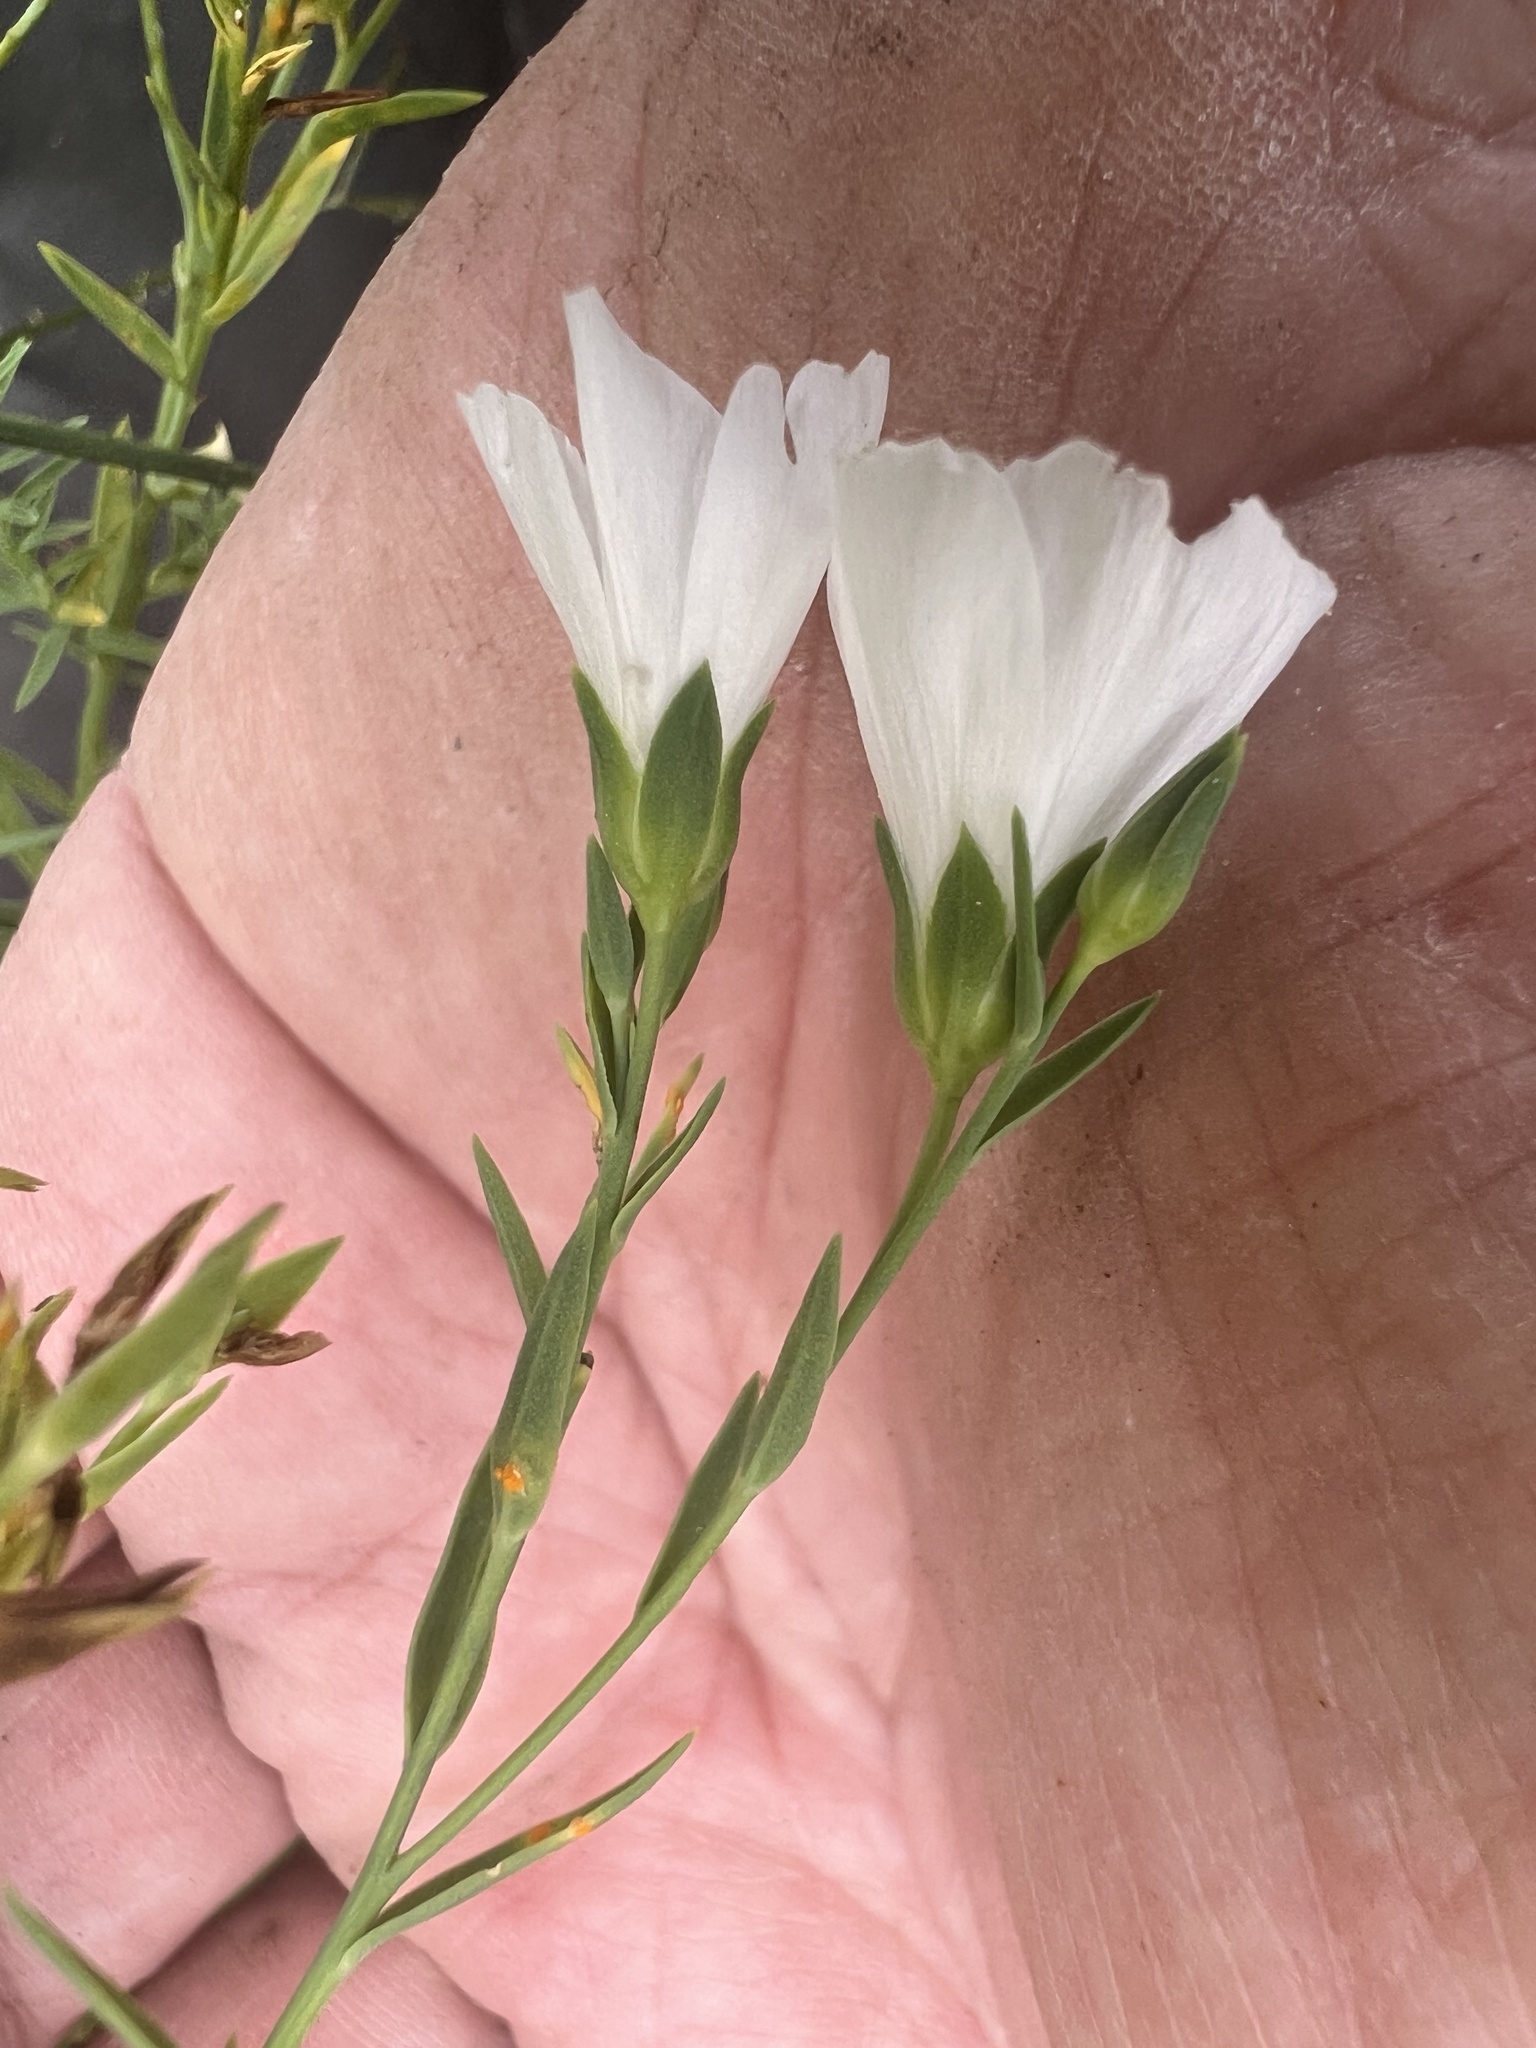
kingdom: Plantae
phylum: Tracheophyta
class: Magnoliopsida
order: Malpighiales
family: Linaceae
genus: Linum
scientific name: Linum monogynum
